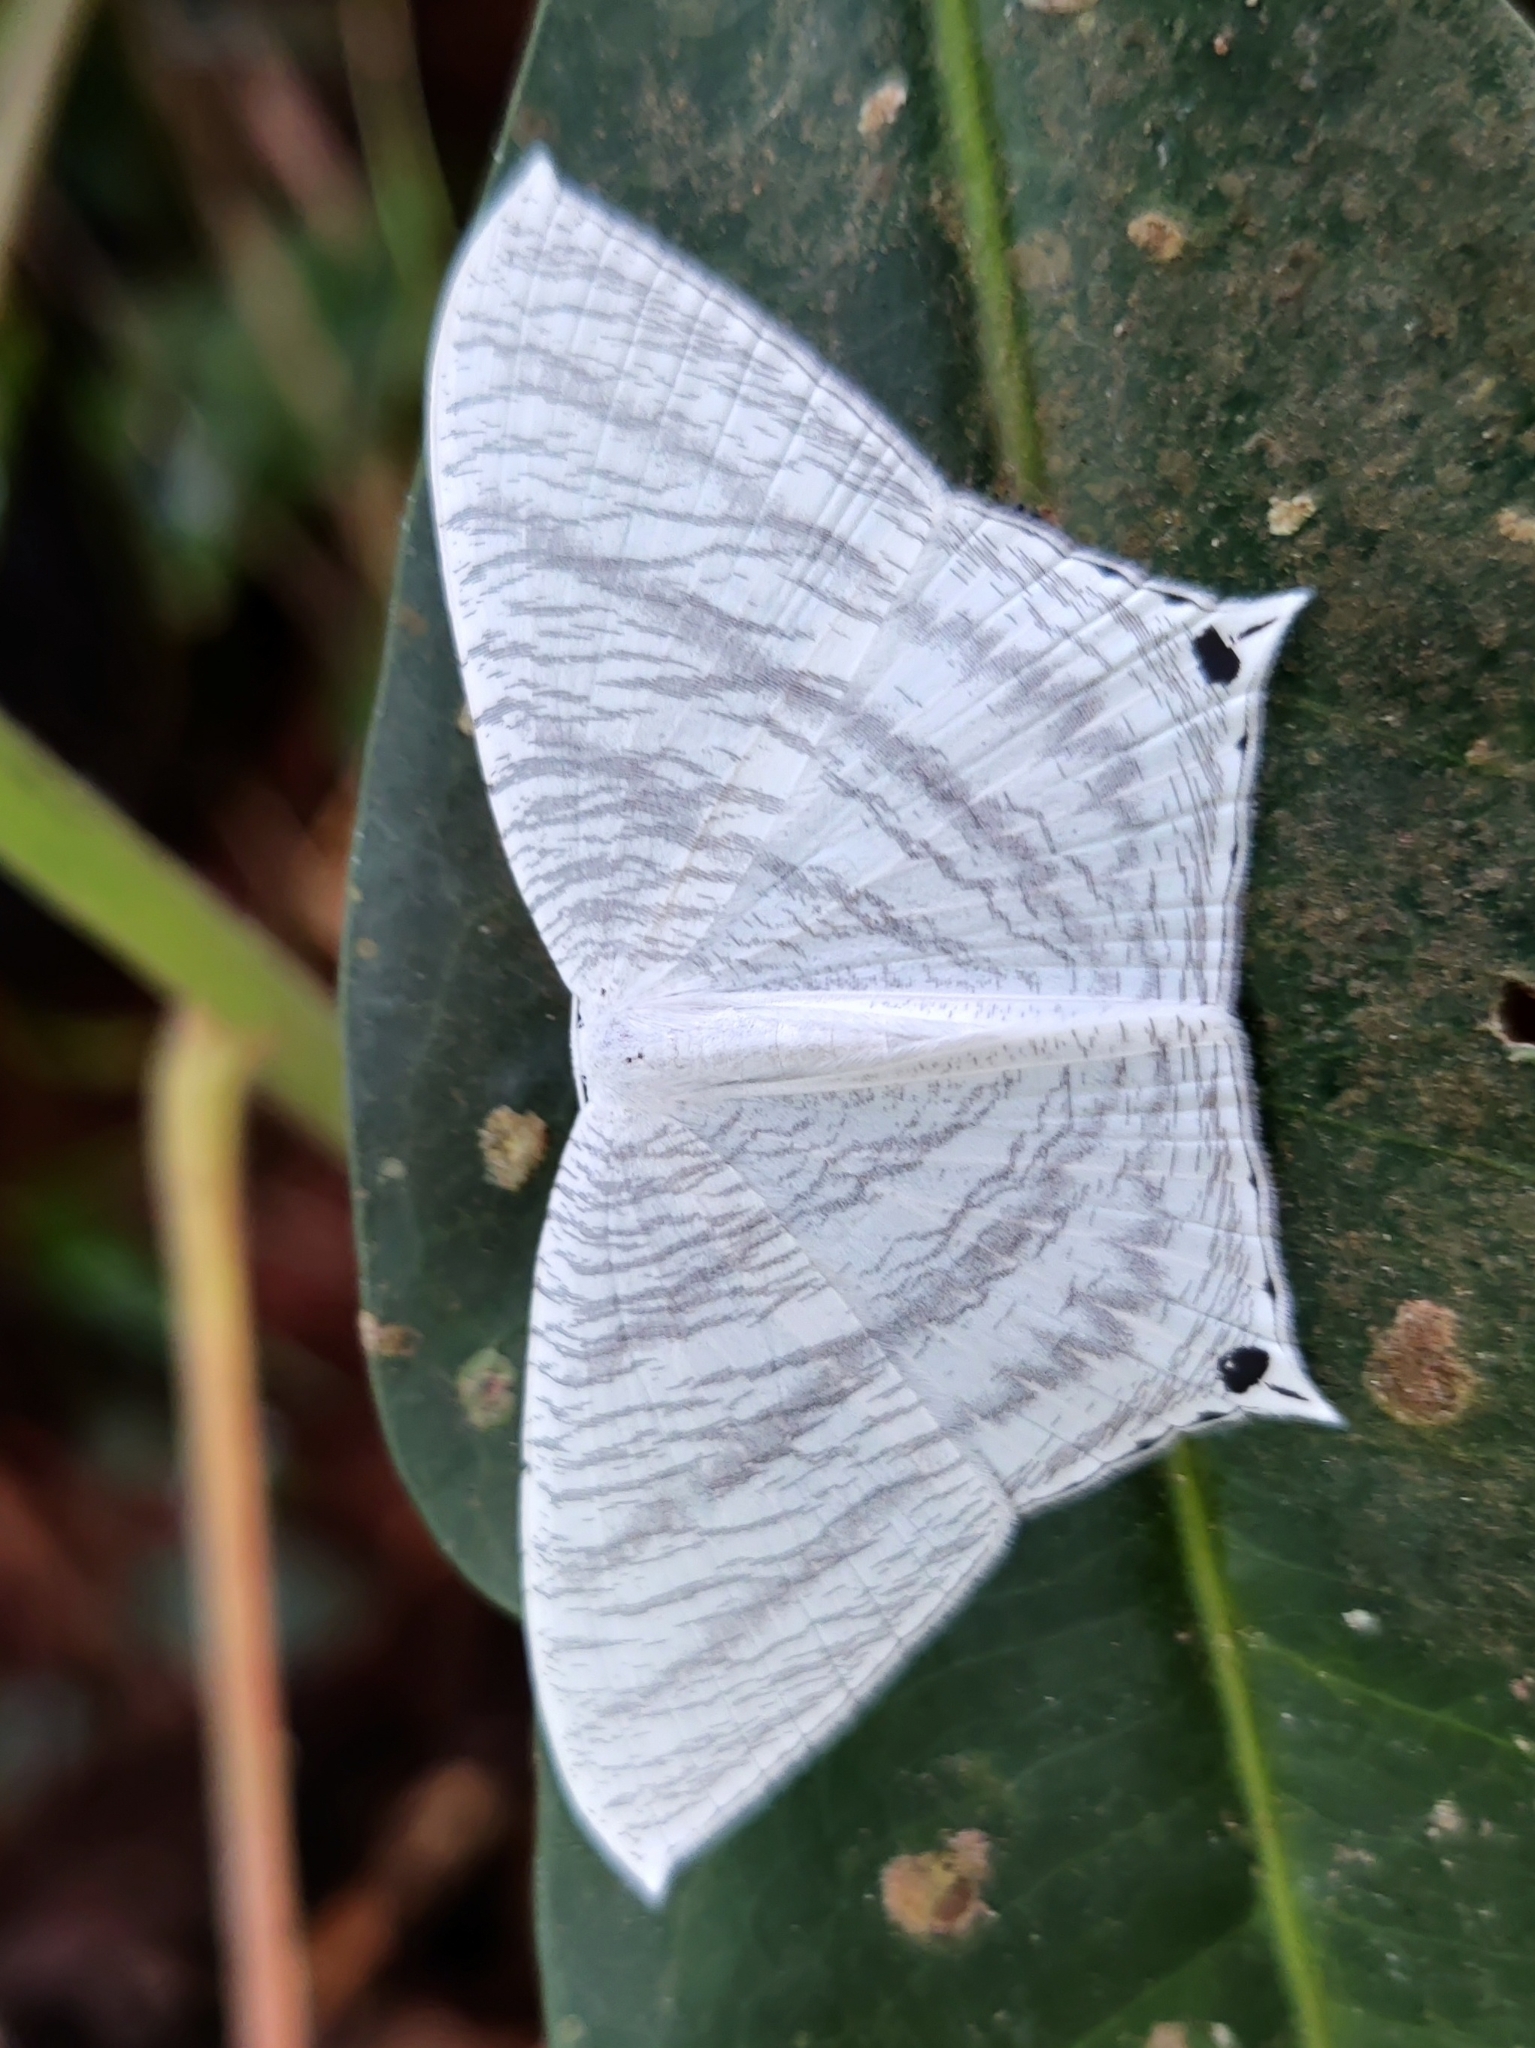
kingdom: Animalia
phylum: Arthropoda
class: Insecta
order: Lepidoptera
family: Uraniidae
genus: Micronia
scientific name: Micronia aculeata
